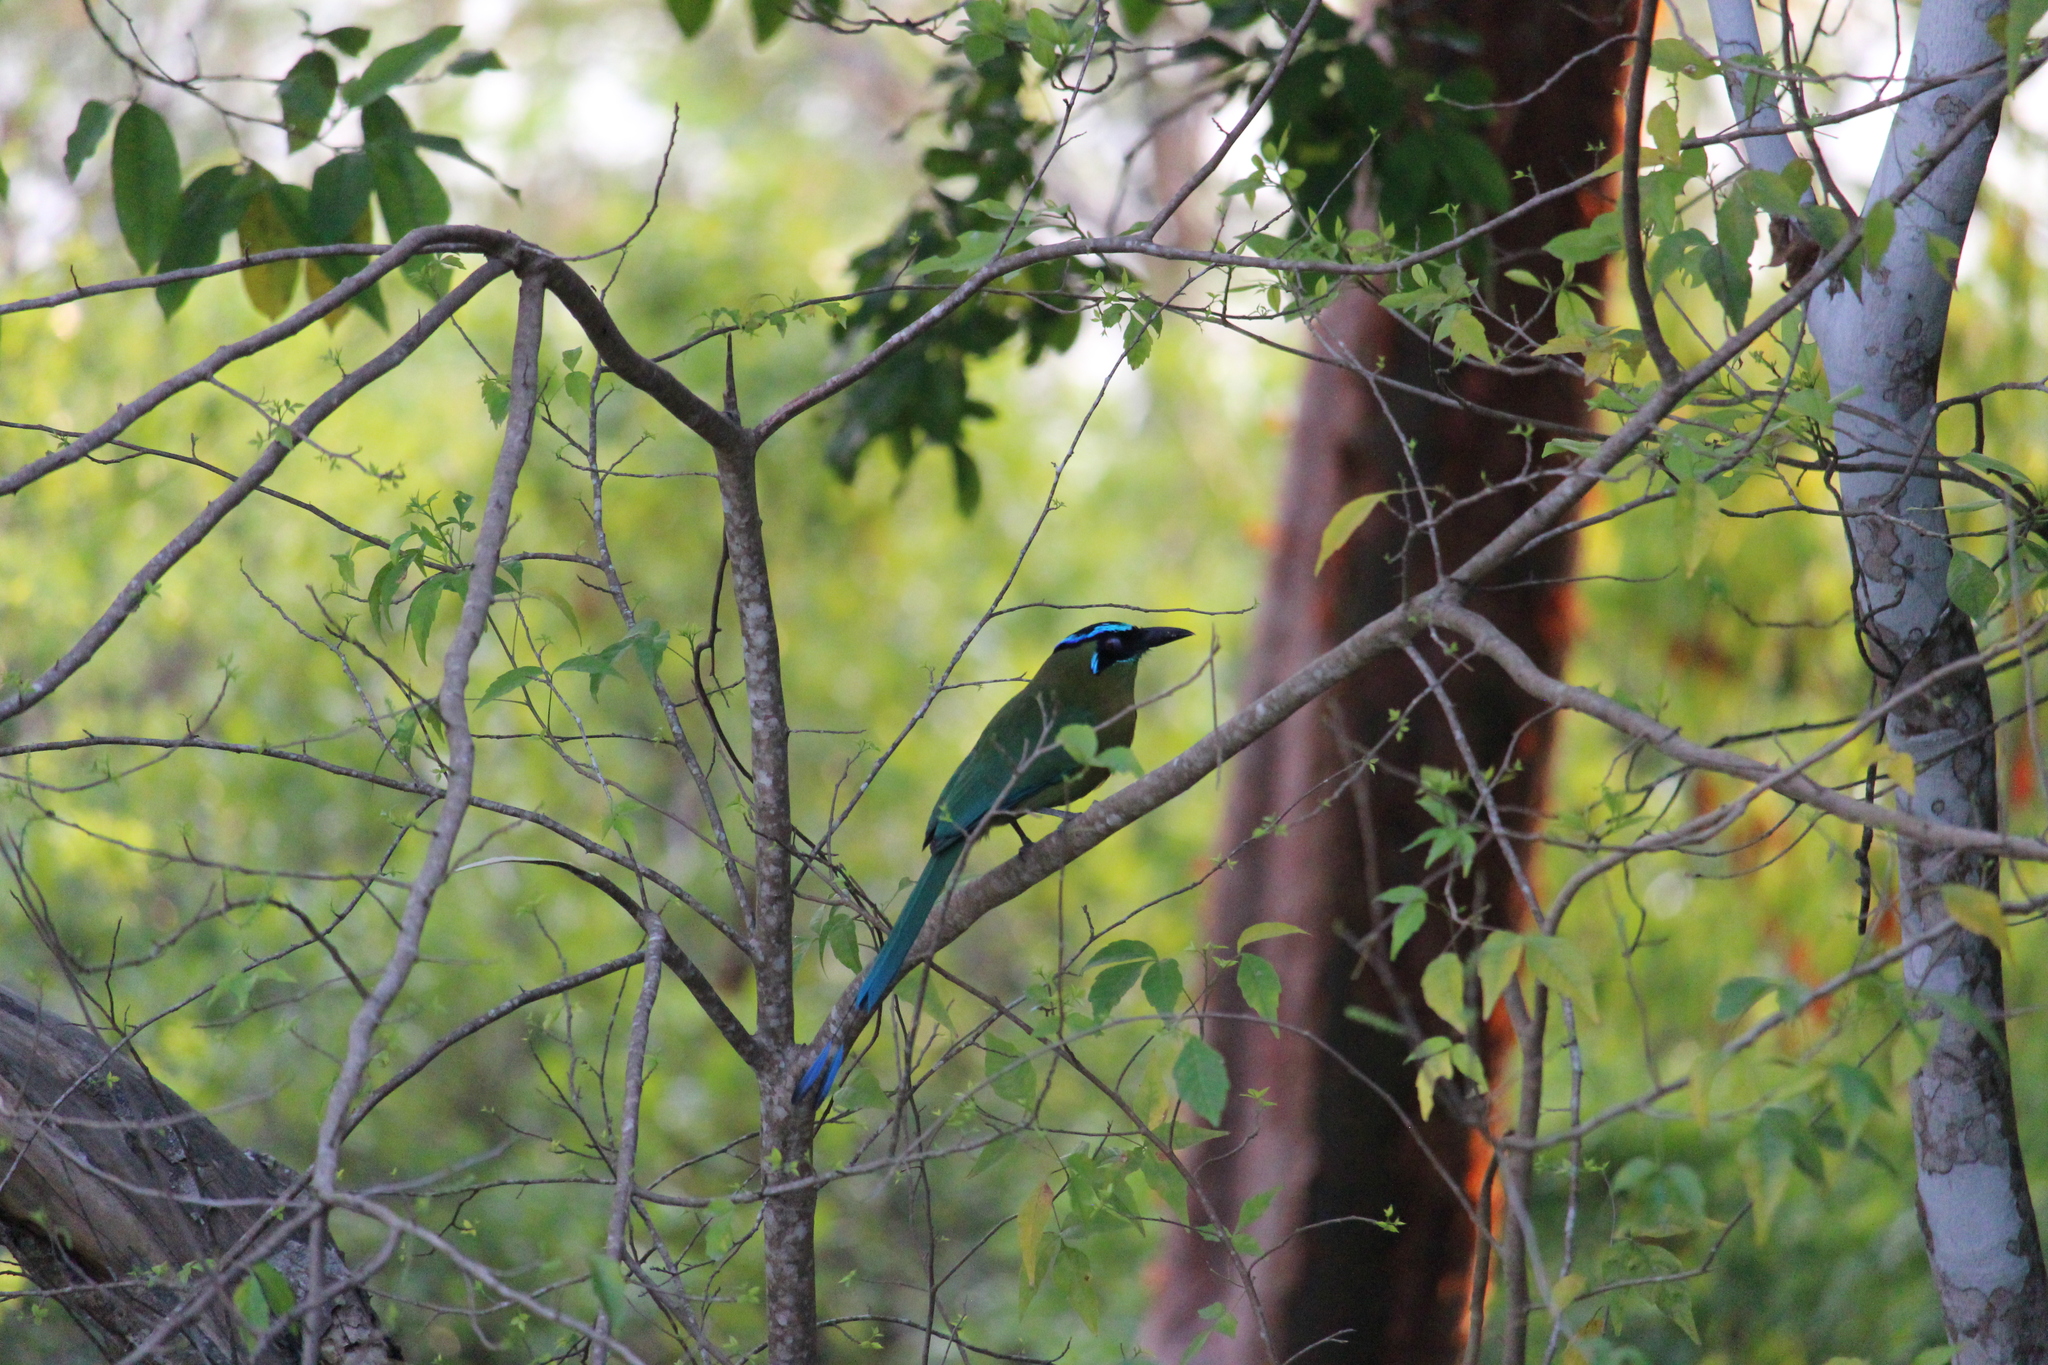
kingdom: Animalia
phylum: Chordata
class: Aves
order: Coraciiformes
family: Momotidae
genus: Momotus
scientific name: Momotus lessonii
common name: Lesson's motmot
